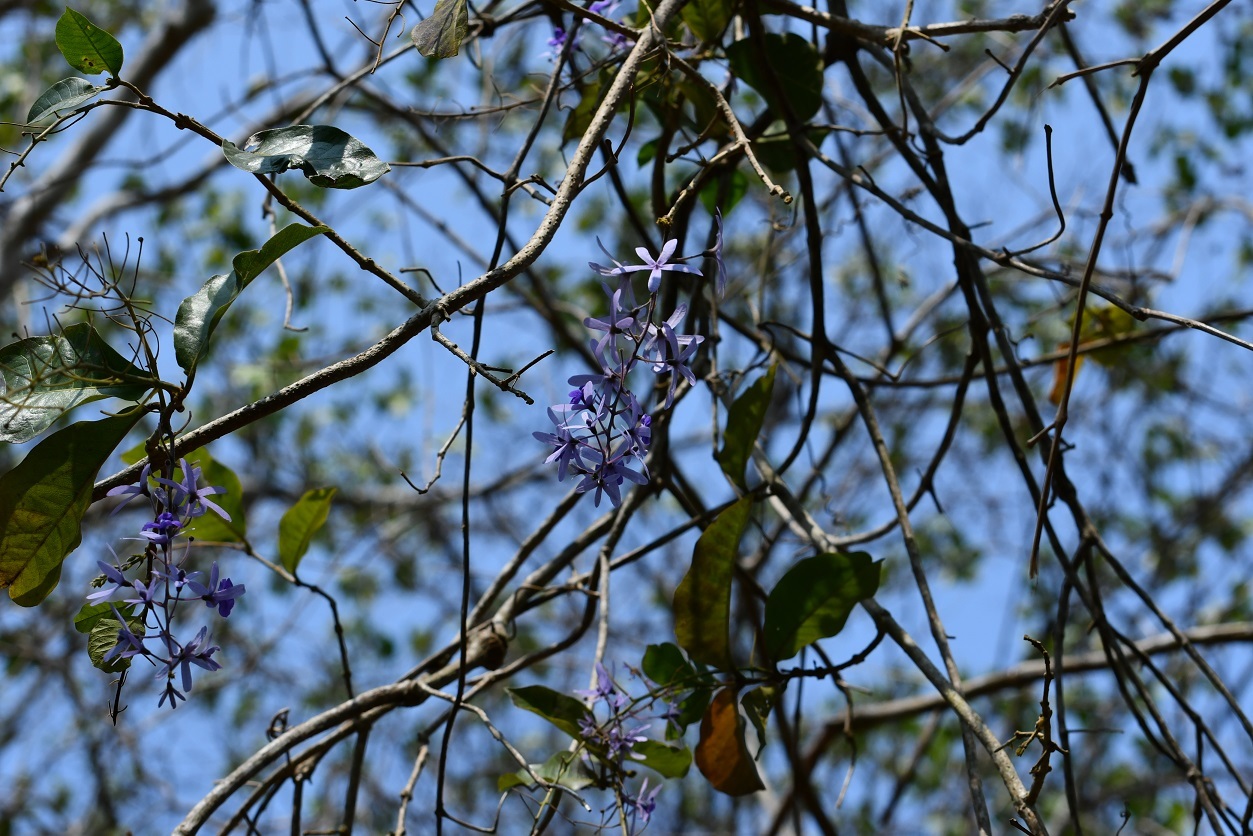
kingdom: Plantae
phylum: Tracheophyta
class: Magnoliopsida
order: Lamiales
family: Verbenaceae
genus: Petrea
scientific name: Petrea volubilis
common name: Queen's-wreath
